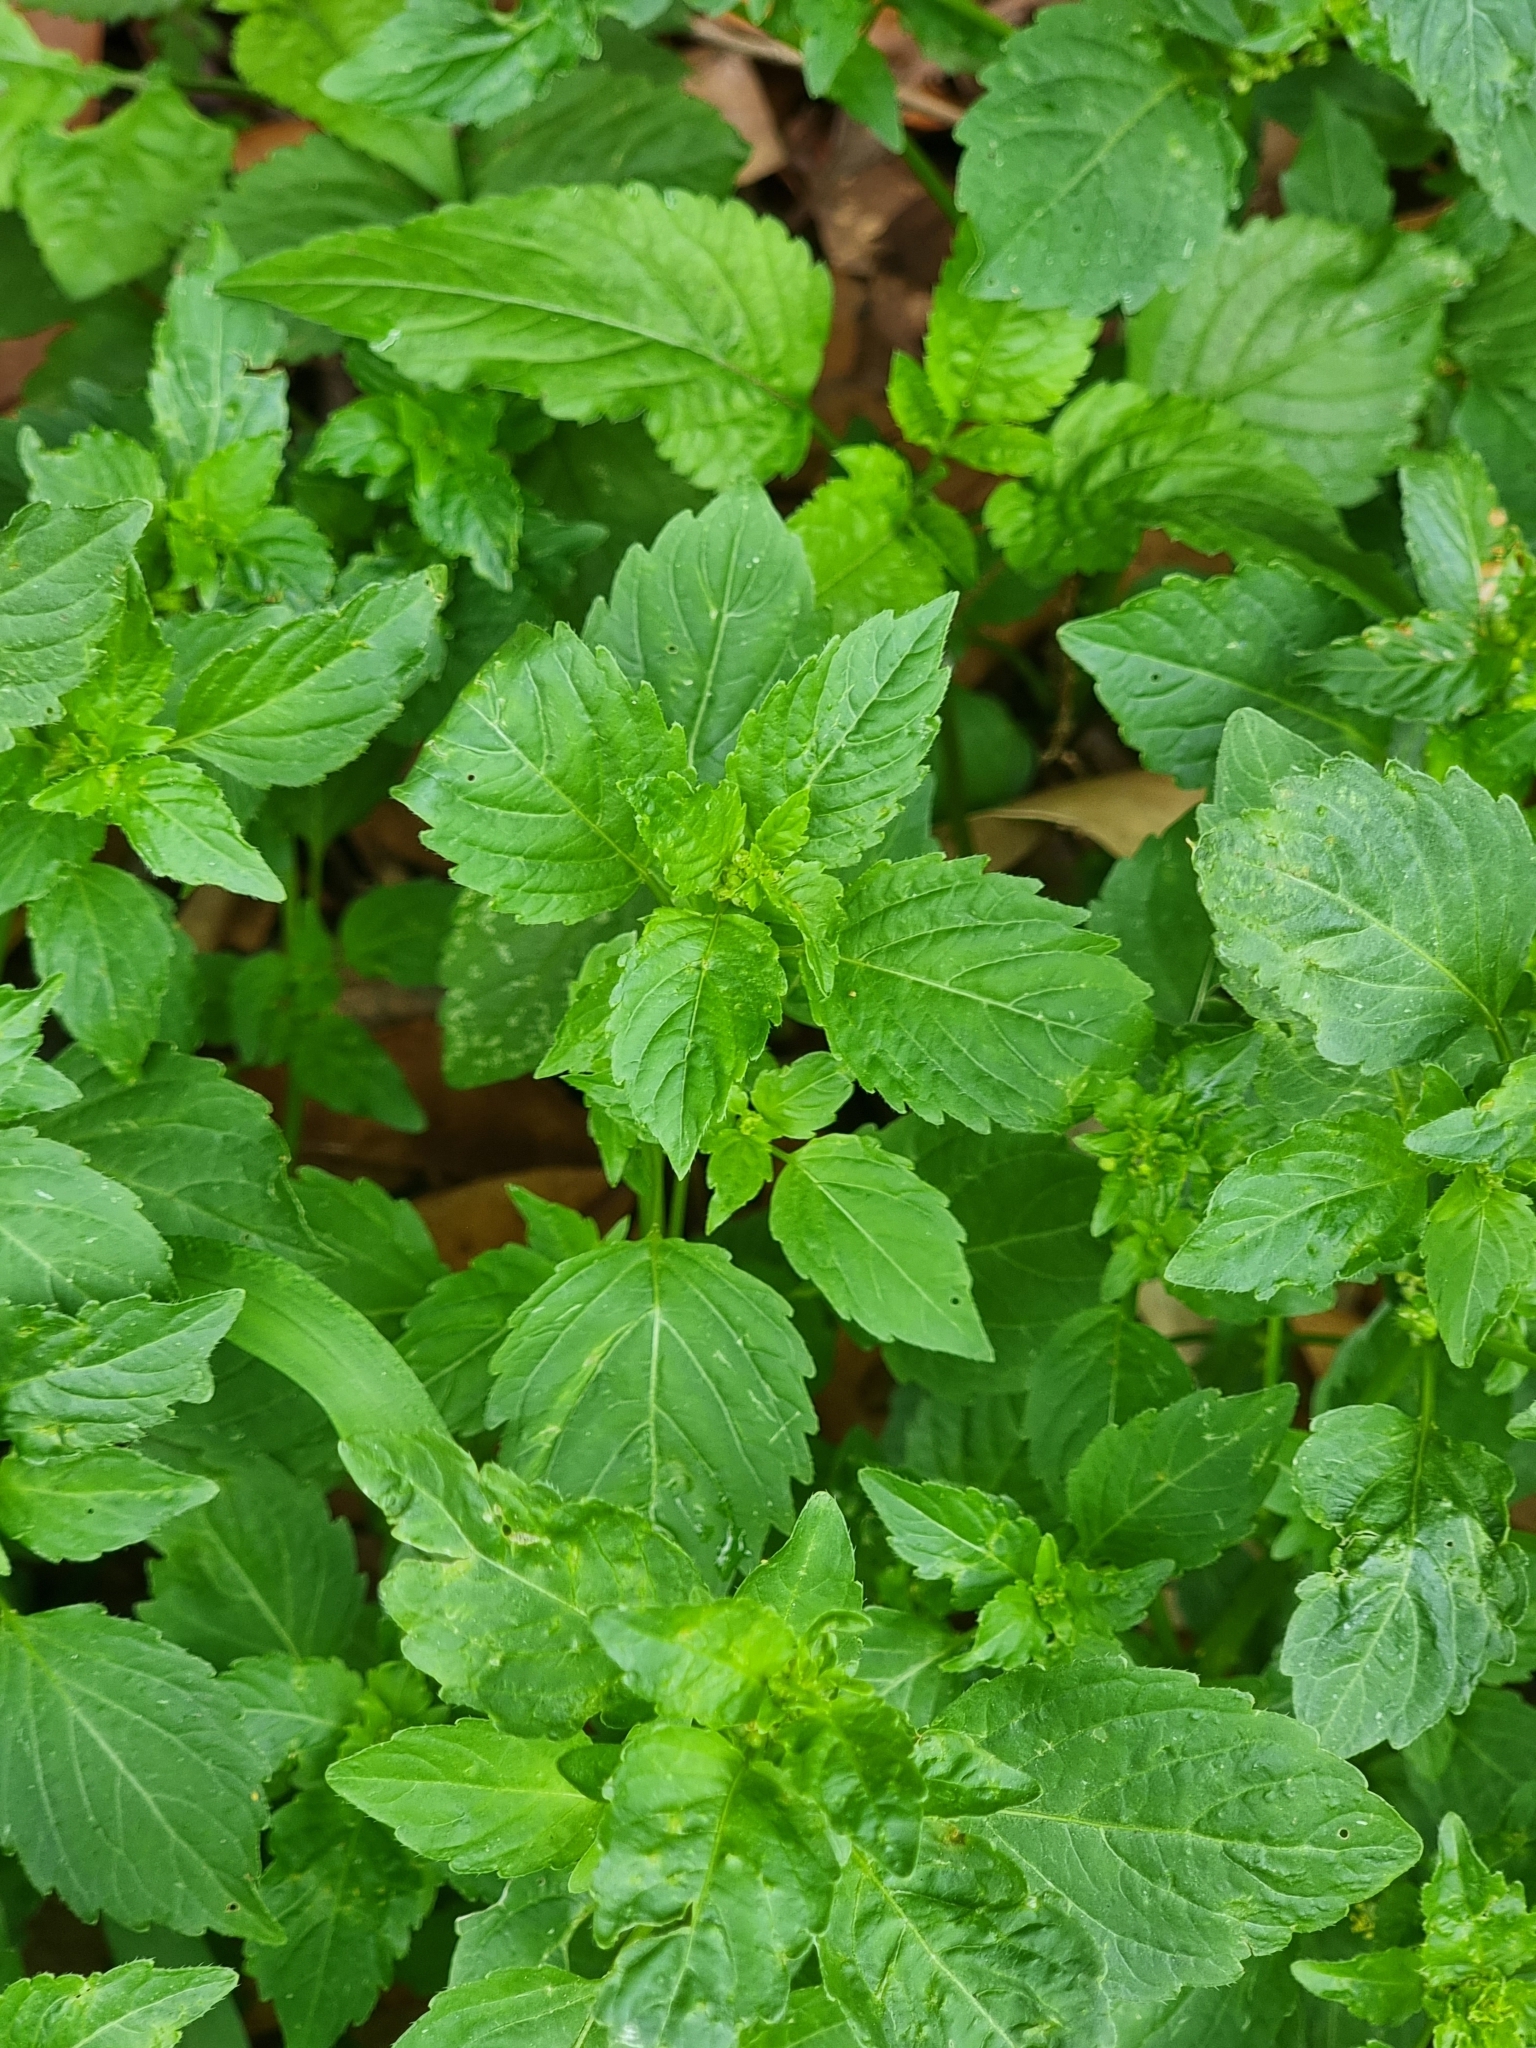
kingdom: Plantae
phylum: Tracheophyta
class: Magnoliopsida
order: Malpighiales
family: Euphorbiaceae
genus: Mercurialis
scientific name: Mercurialis annua
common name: Annual mercury
